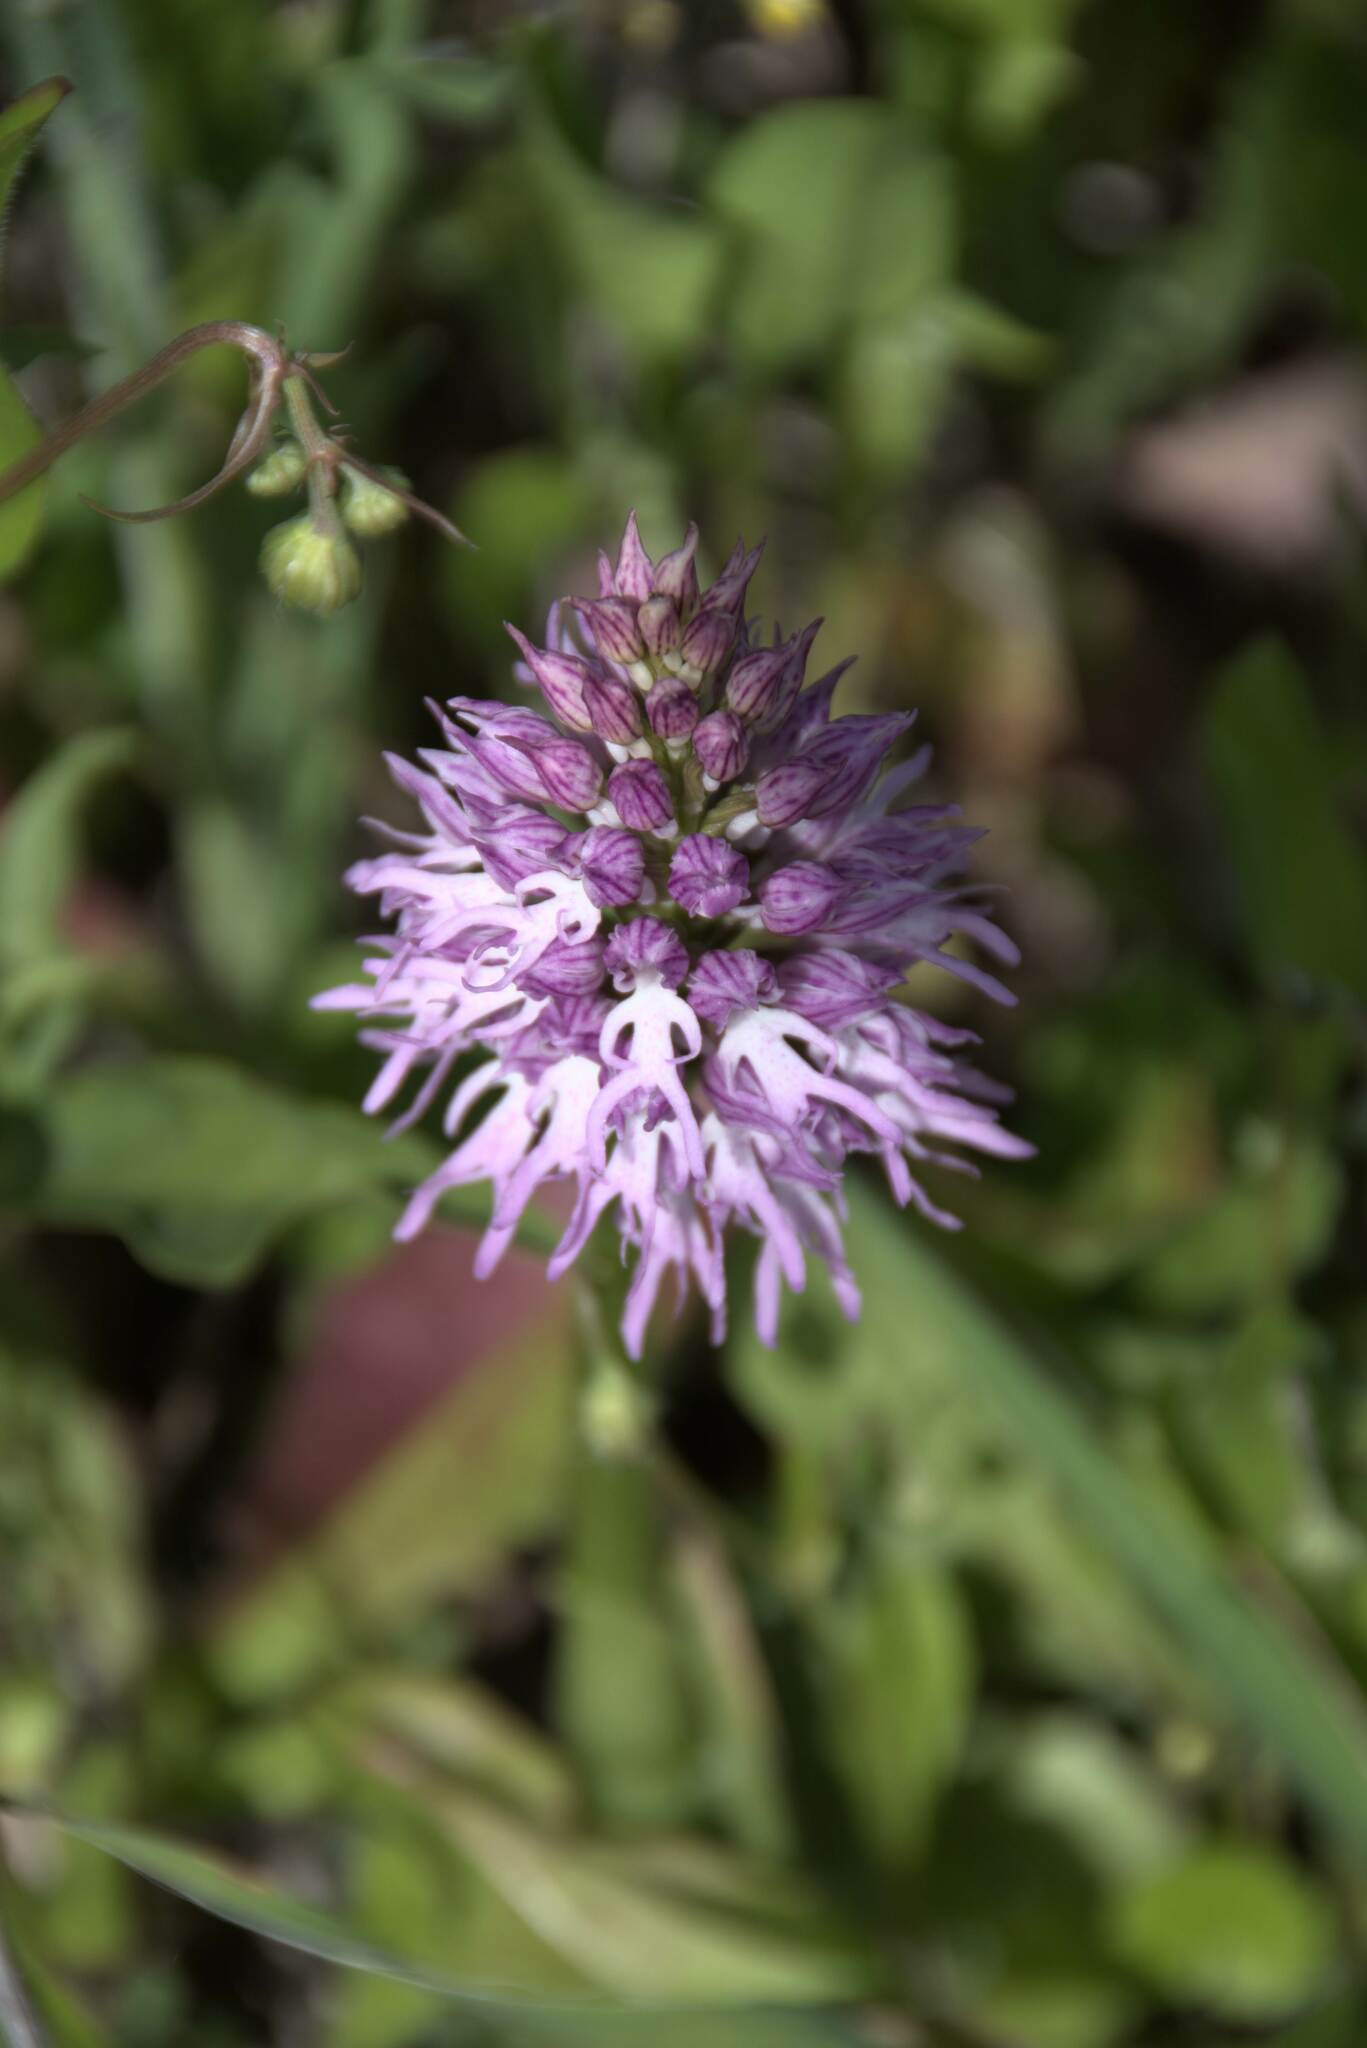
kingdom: Plantae
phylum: Tracheophyta
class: Liliopsida
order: Asparagales
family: Orchidaceae
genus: Orchis
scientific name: Orchis italica
